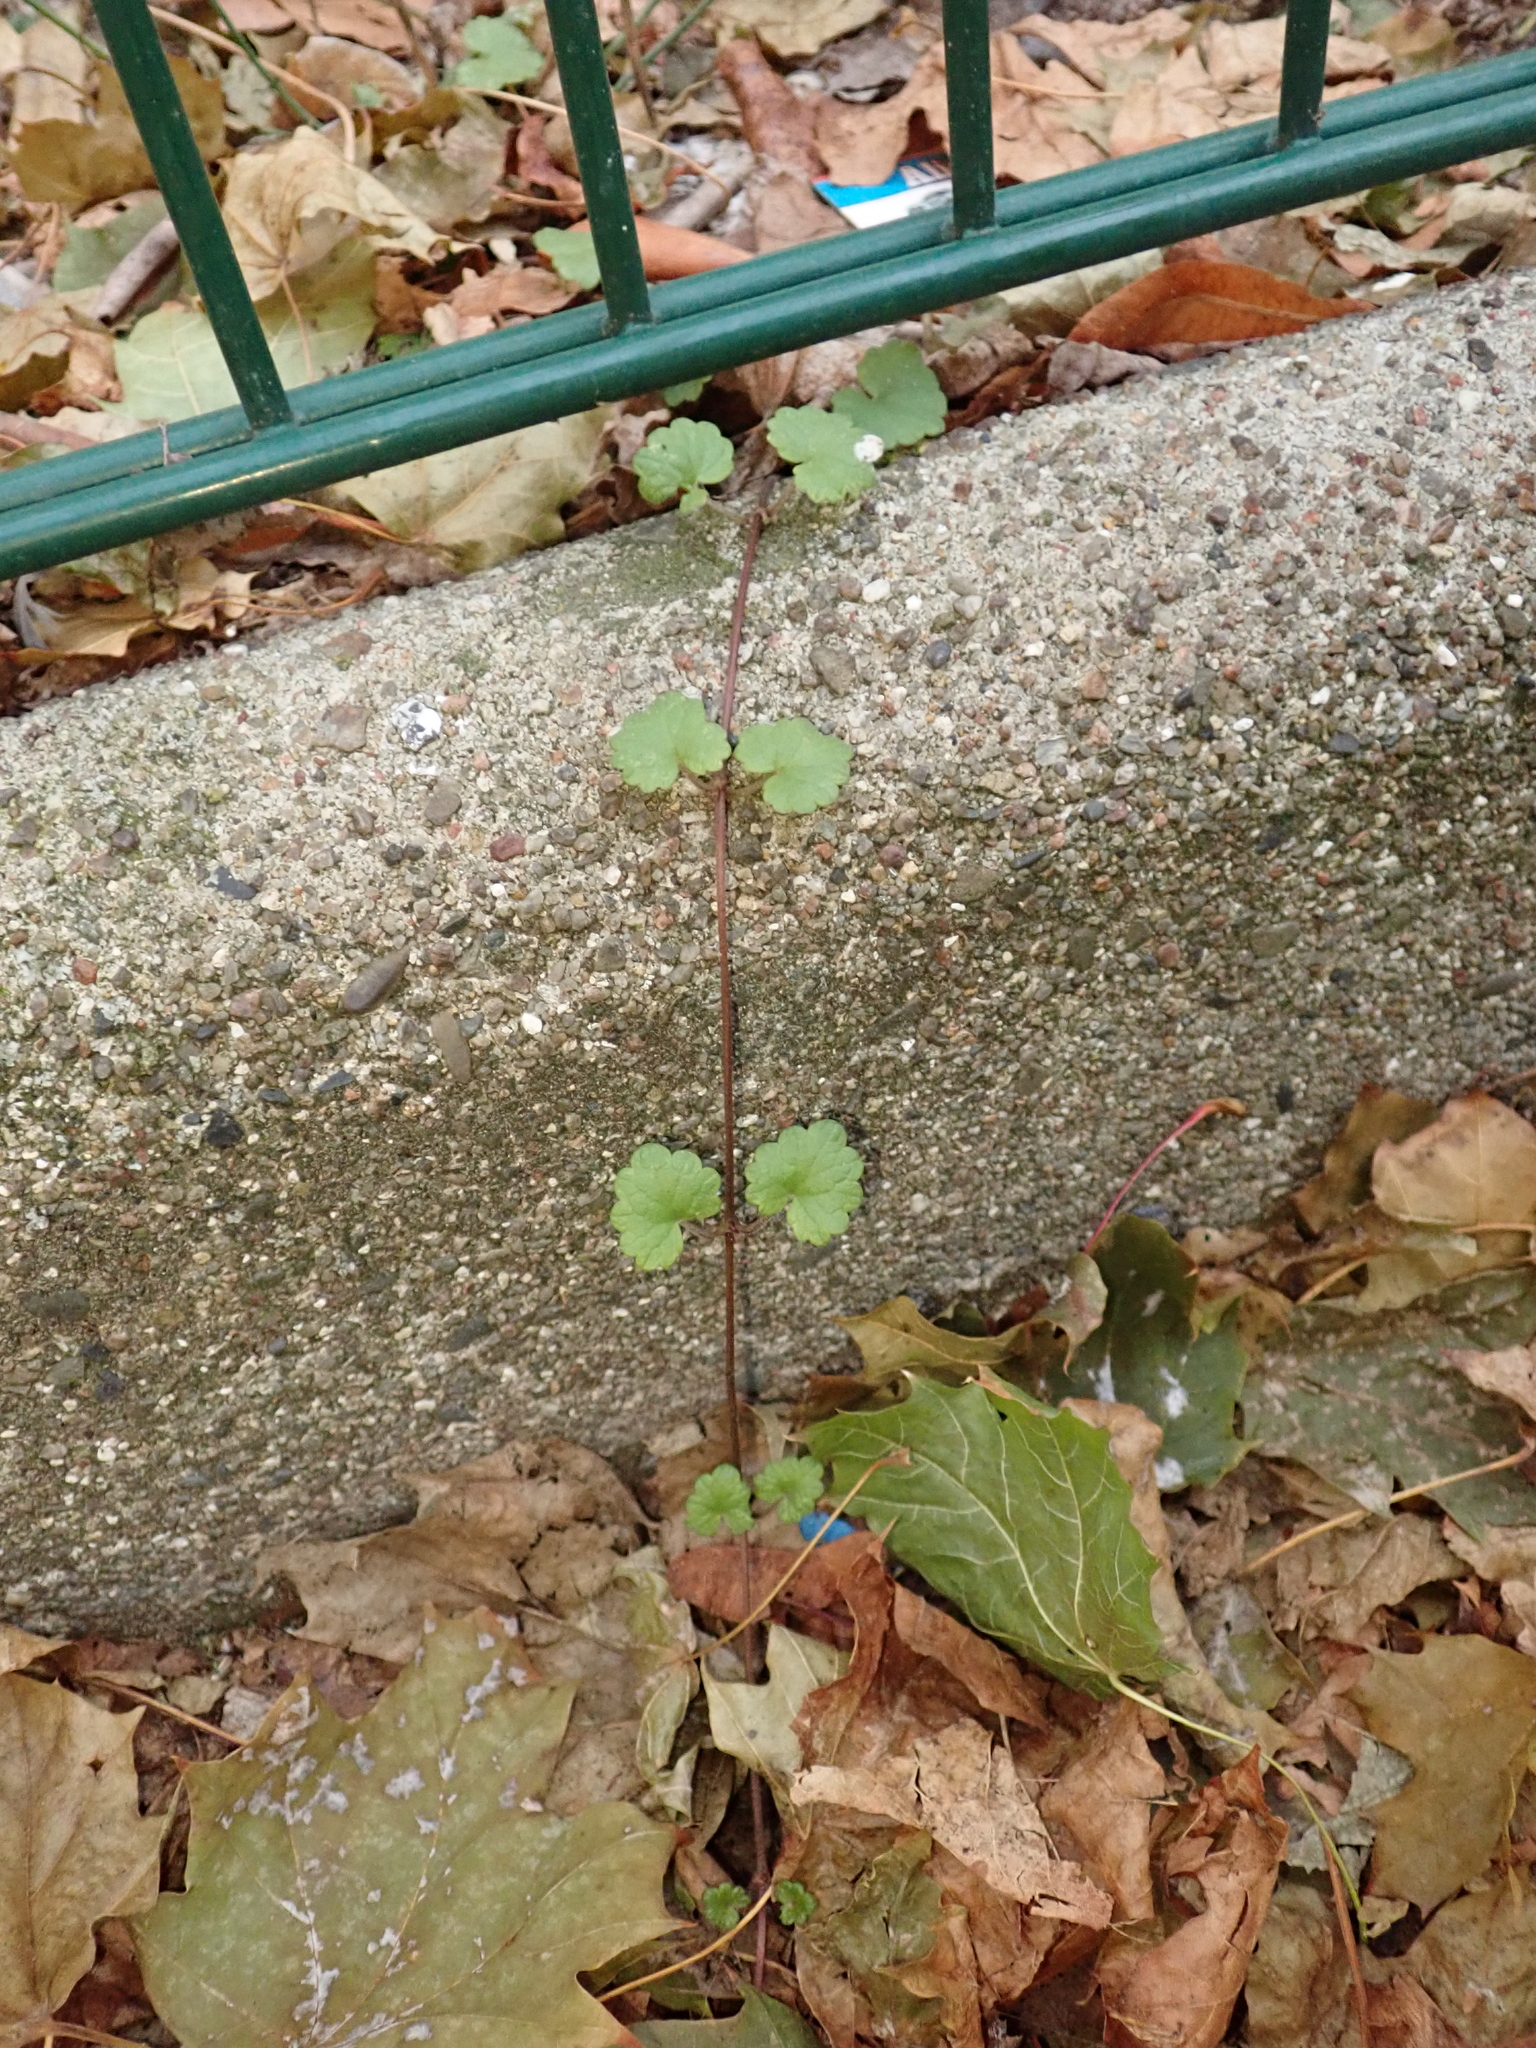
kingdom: Plantae
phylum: Tracheophyta
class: Magnoliopsida
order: Lamiales
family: Lamiaceae
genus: Glechoma
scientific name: Glechoma hederacea
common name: Ground ivy
